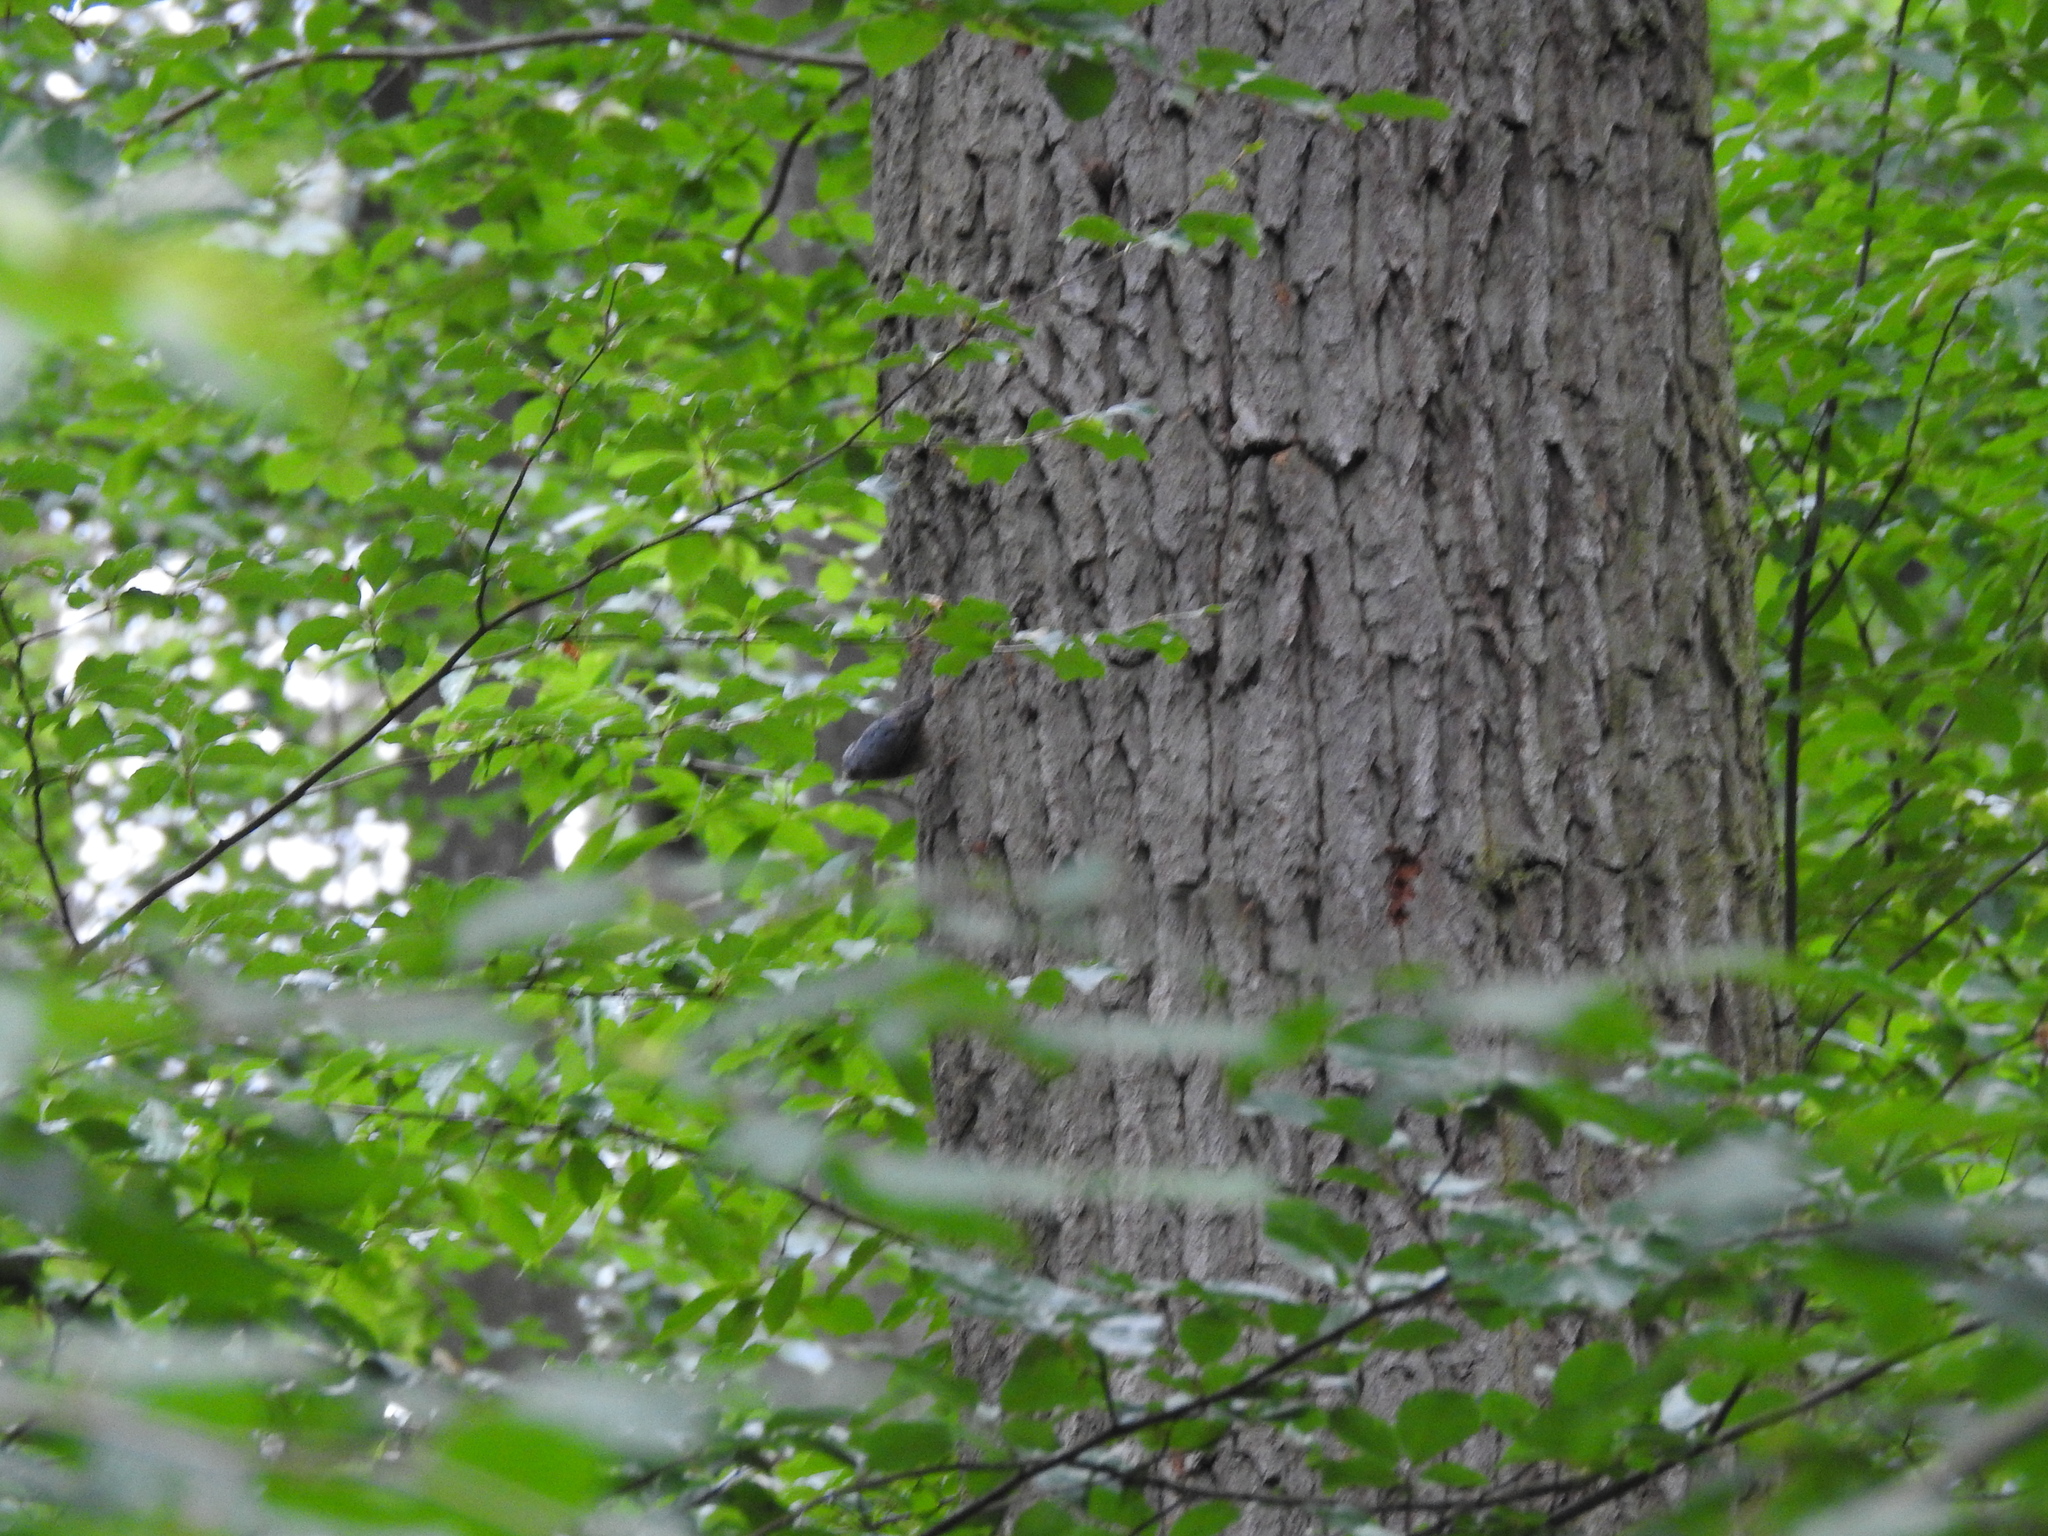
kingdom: Animalia
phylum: Chordata
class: Aves
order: Passeriformes
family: Sittidae
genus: Sitta
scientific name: Sitta europaea
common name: Eurasian nuthatch
